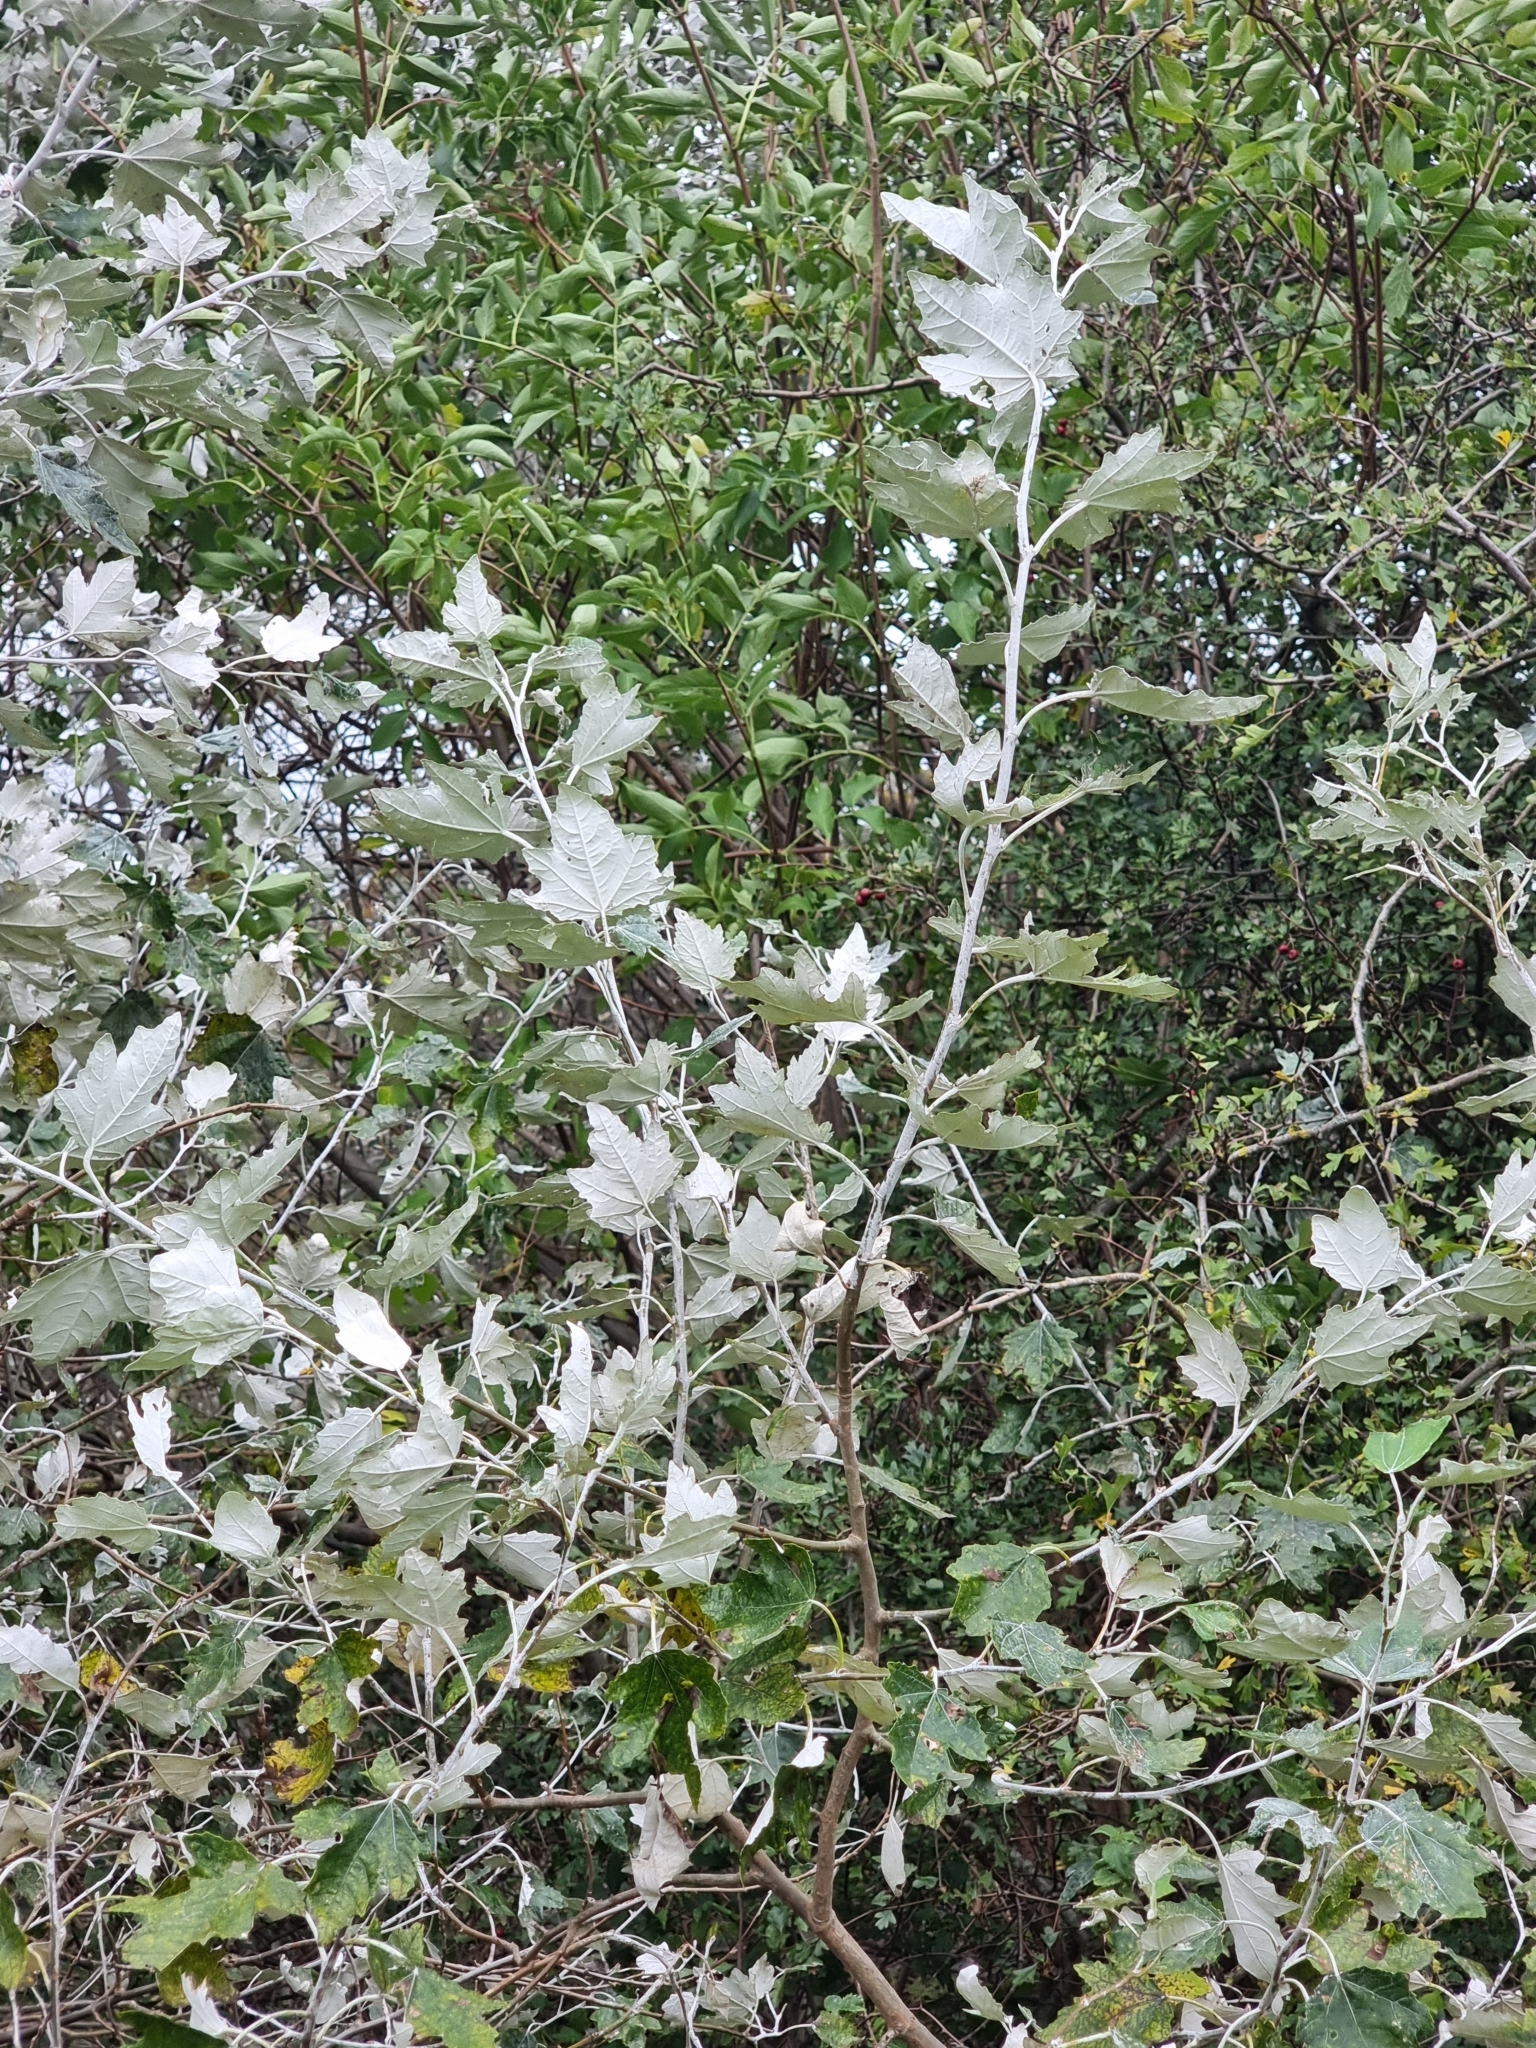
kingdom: Plantae
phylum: Tracheophyta
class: Magnoliopsida
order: Malpighiales
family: Salicaceae
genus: Populus
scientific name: Populus alba
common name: White poplar
